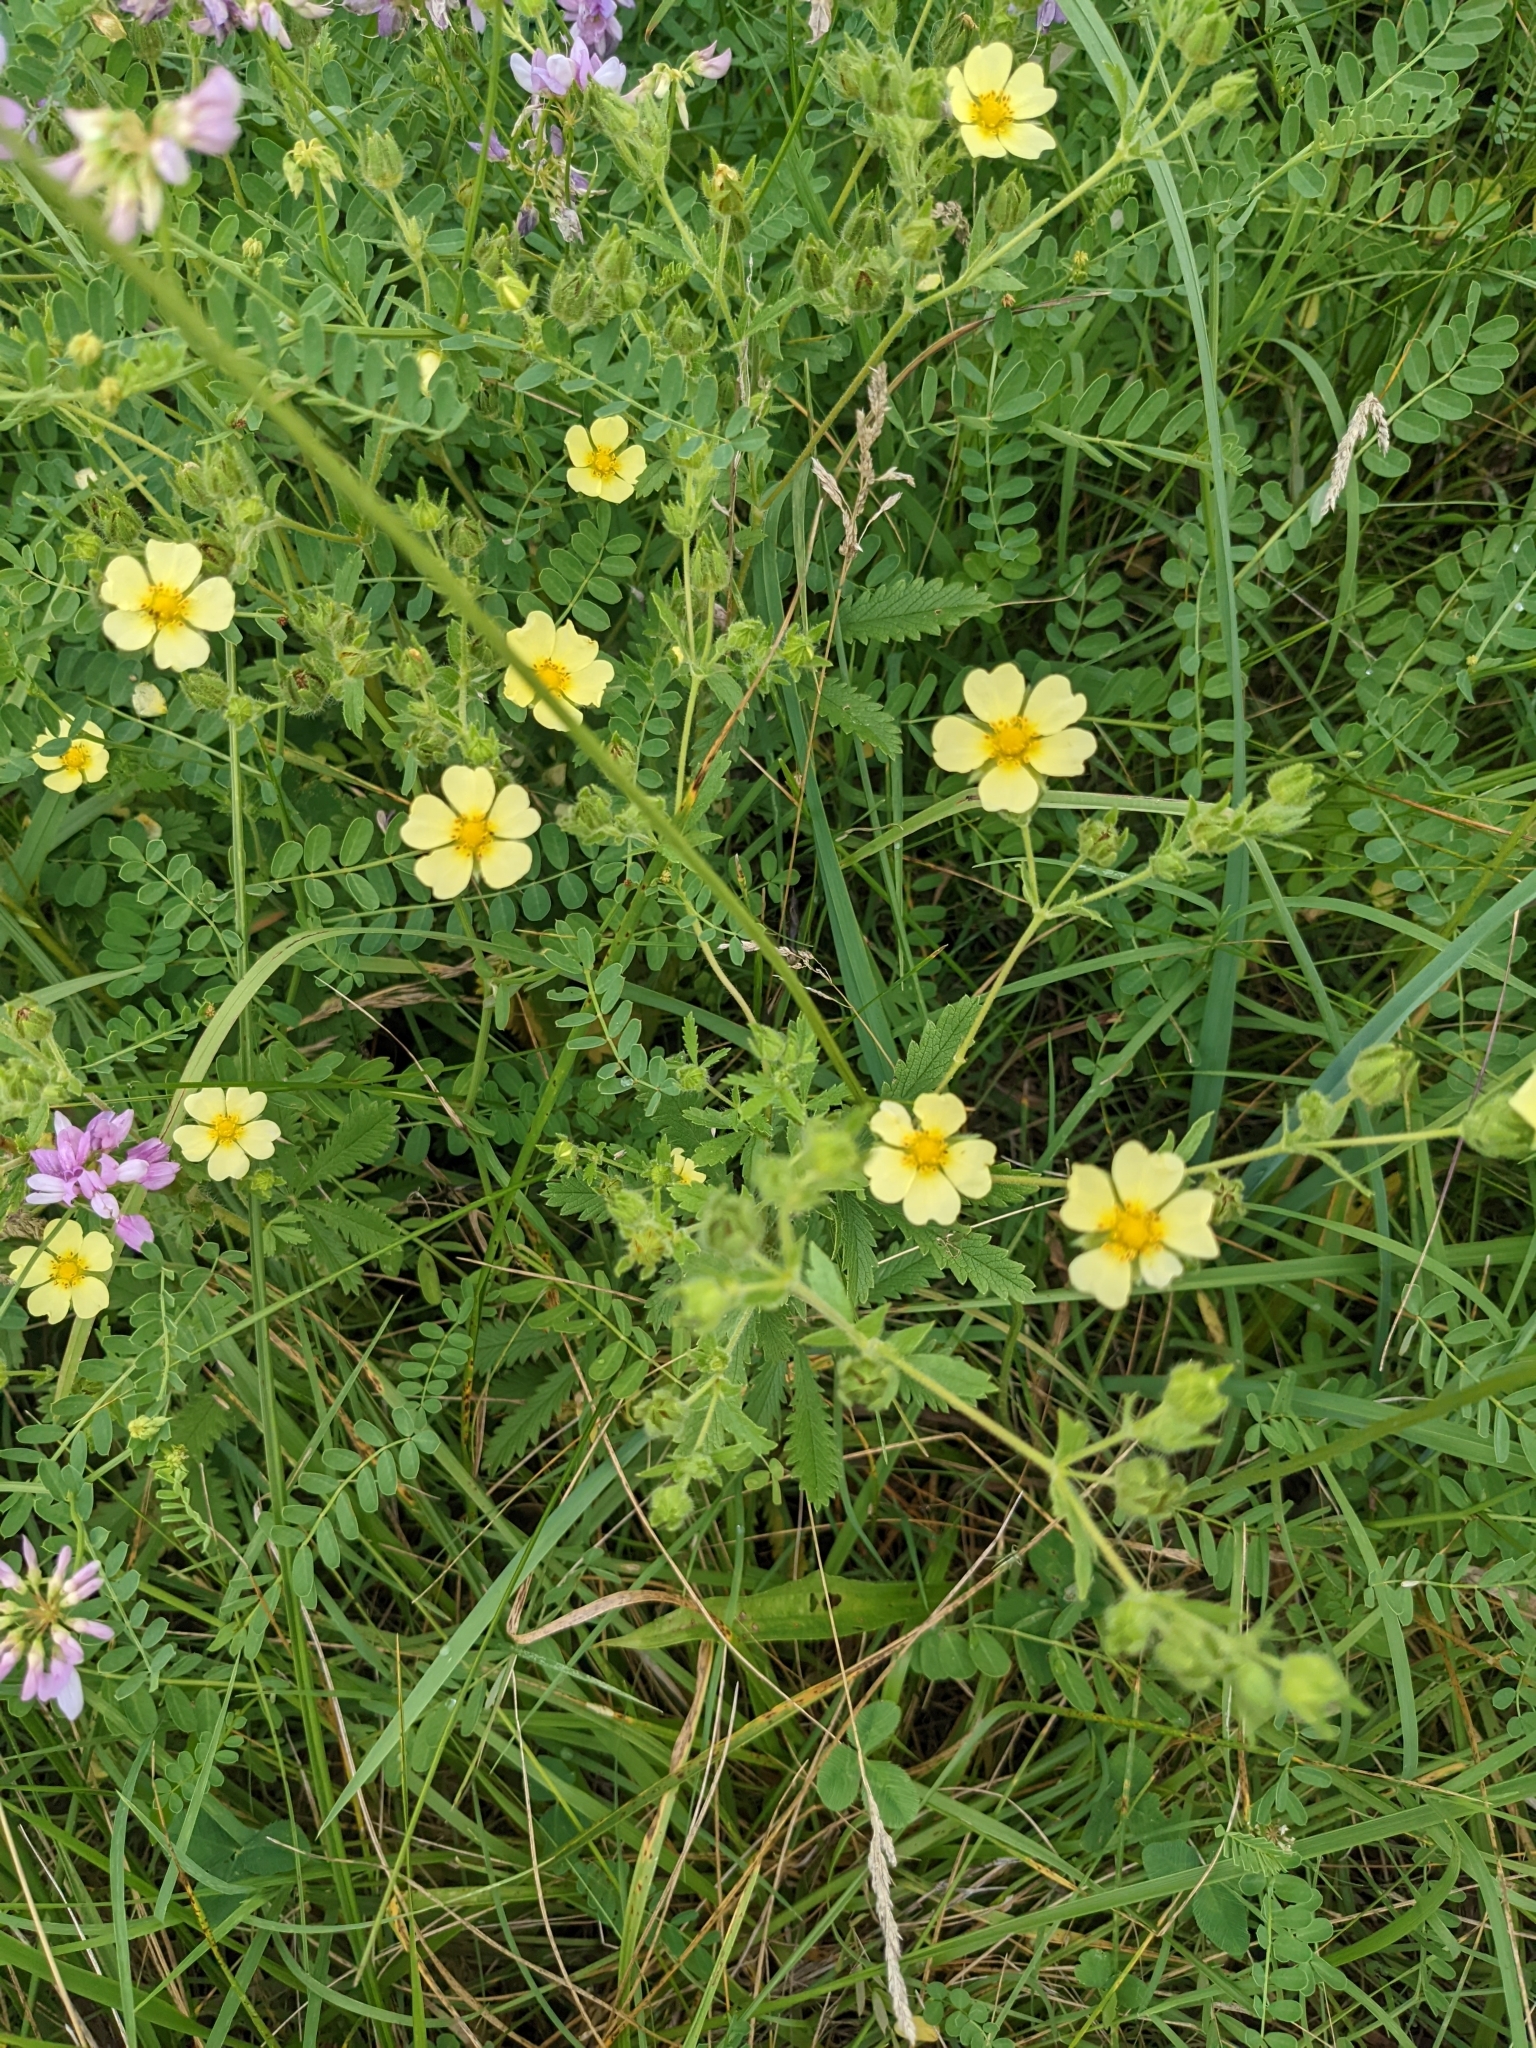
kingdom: Plantae
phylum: Tracheophyta
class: Magnoliopsida
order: Rosales
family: Rosaceae
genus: Potentilla
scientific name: Potentilla recta
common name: Sulphur cinquefoil
